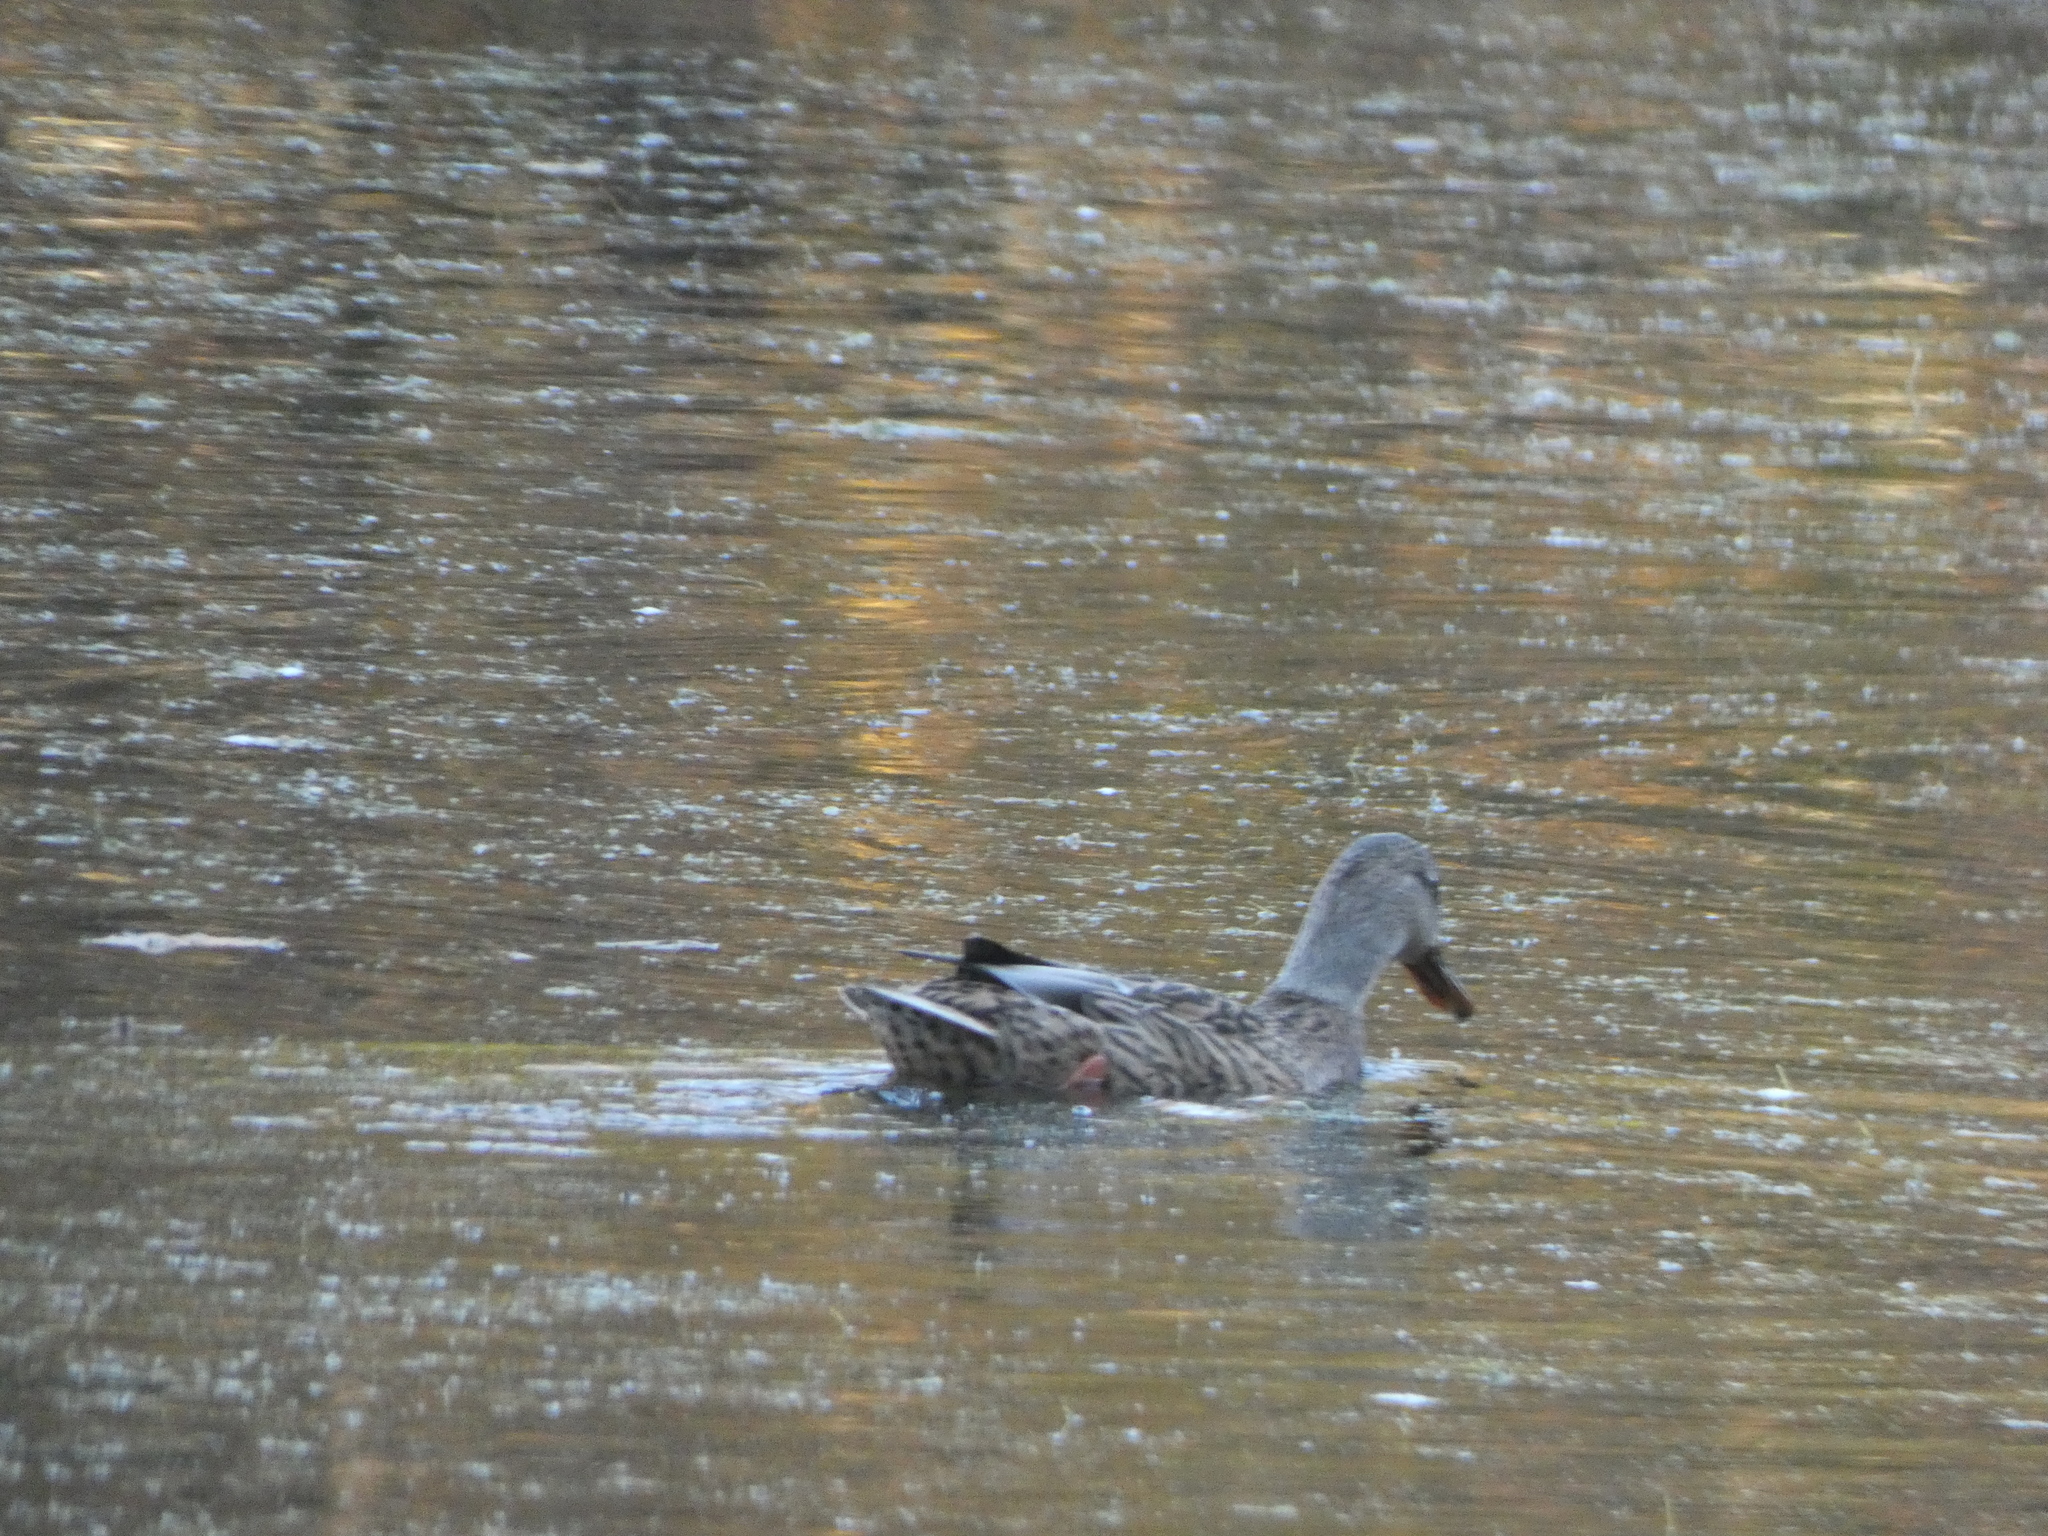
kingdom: Animalia
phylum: Chordata
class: Aves
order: Anseriformes
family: Anatidae
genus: Anas
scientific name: Anas platyrhynchos
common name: Mallard
